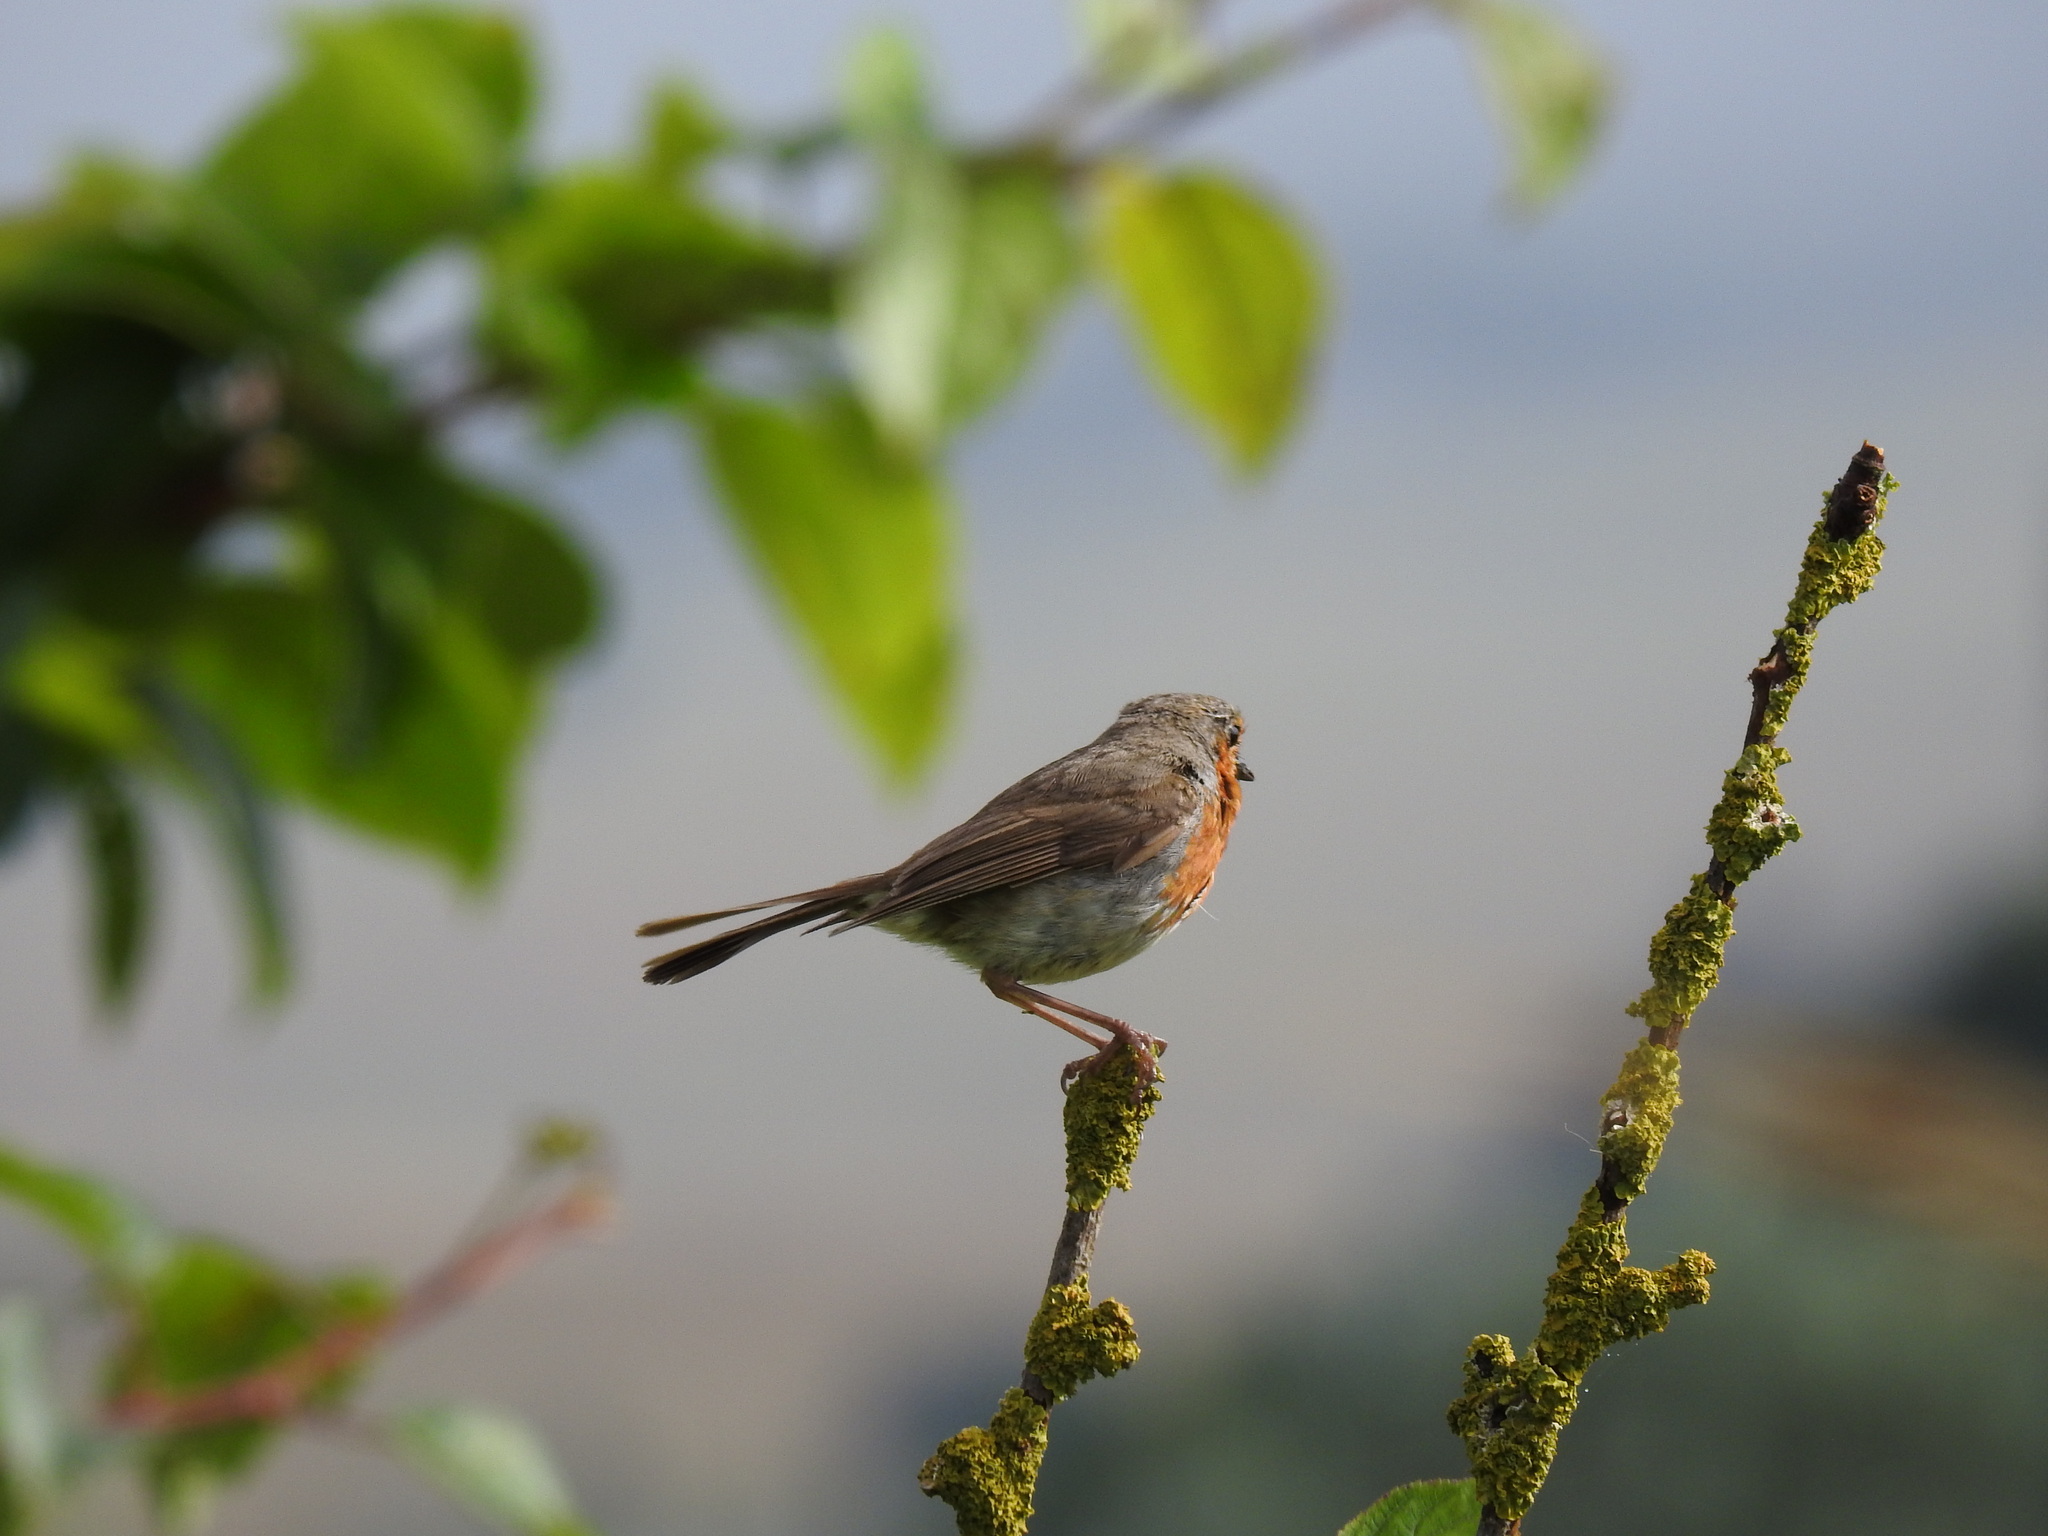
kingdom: Animalia
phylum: Chordata
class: Aves
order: Passeriformes
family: Muscicapidae
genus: Erithacus
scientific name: Erithacus rubecula
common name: European robin
